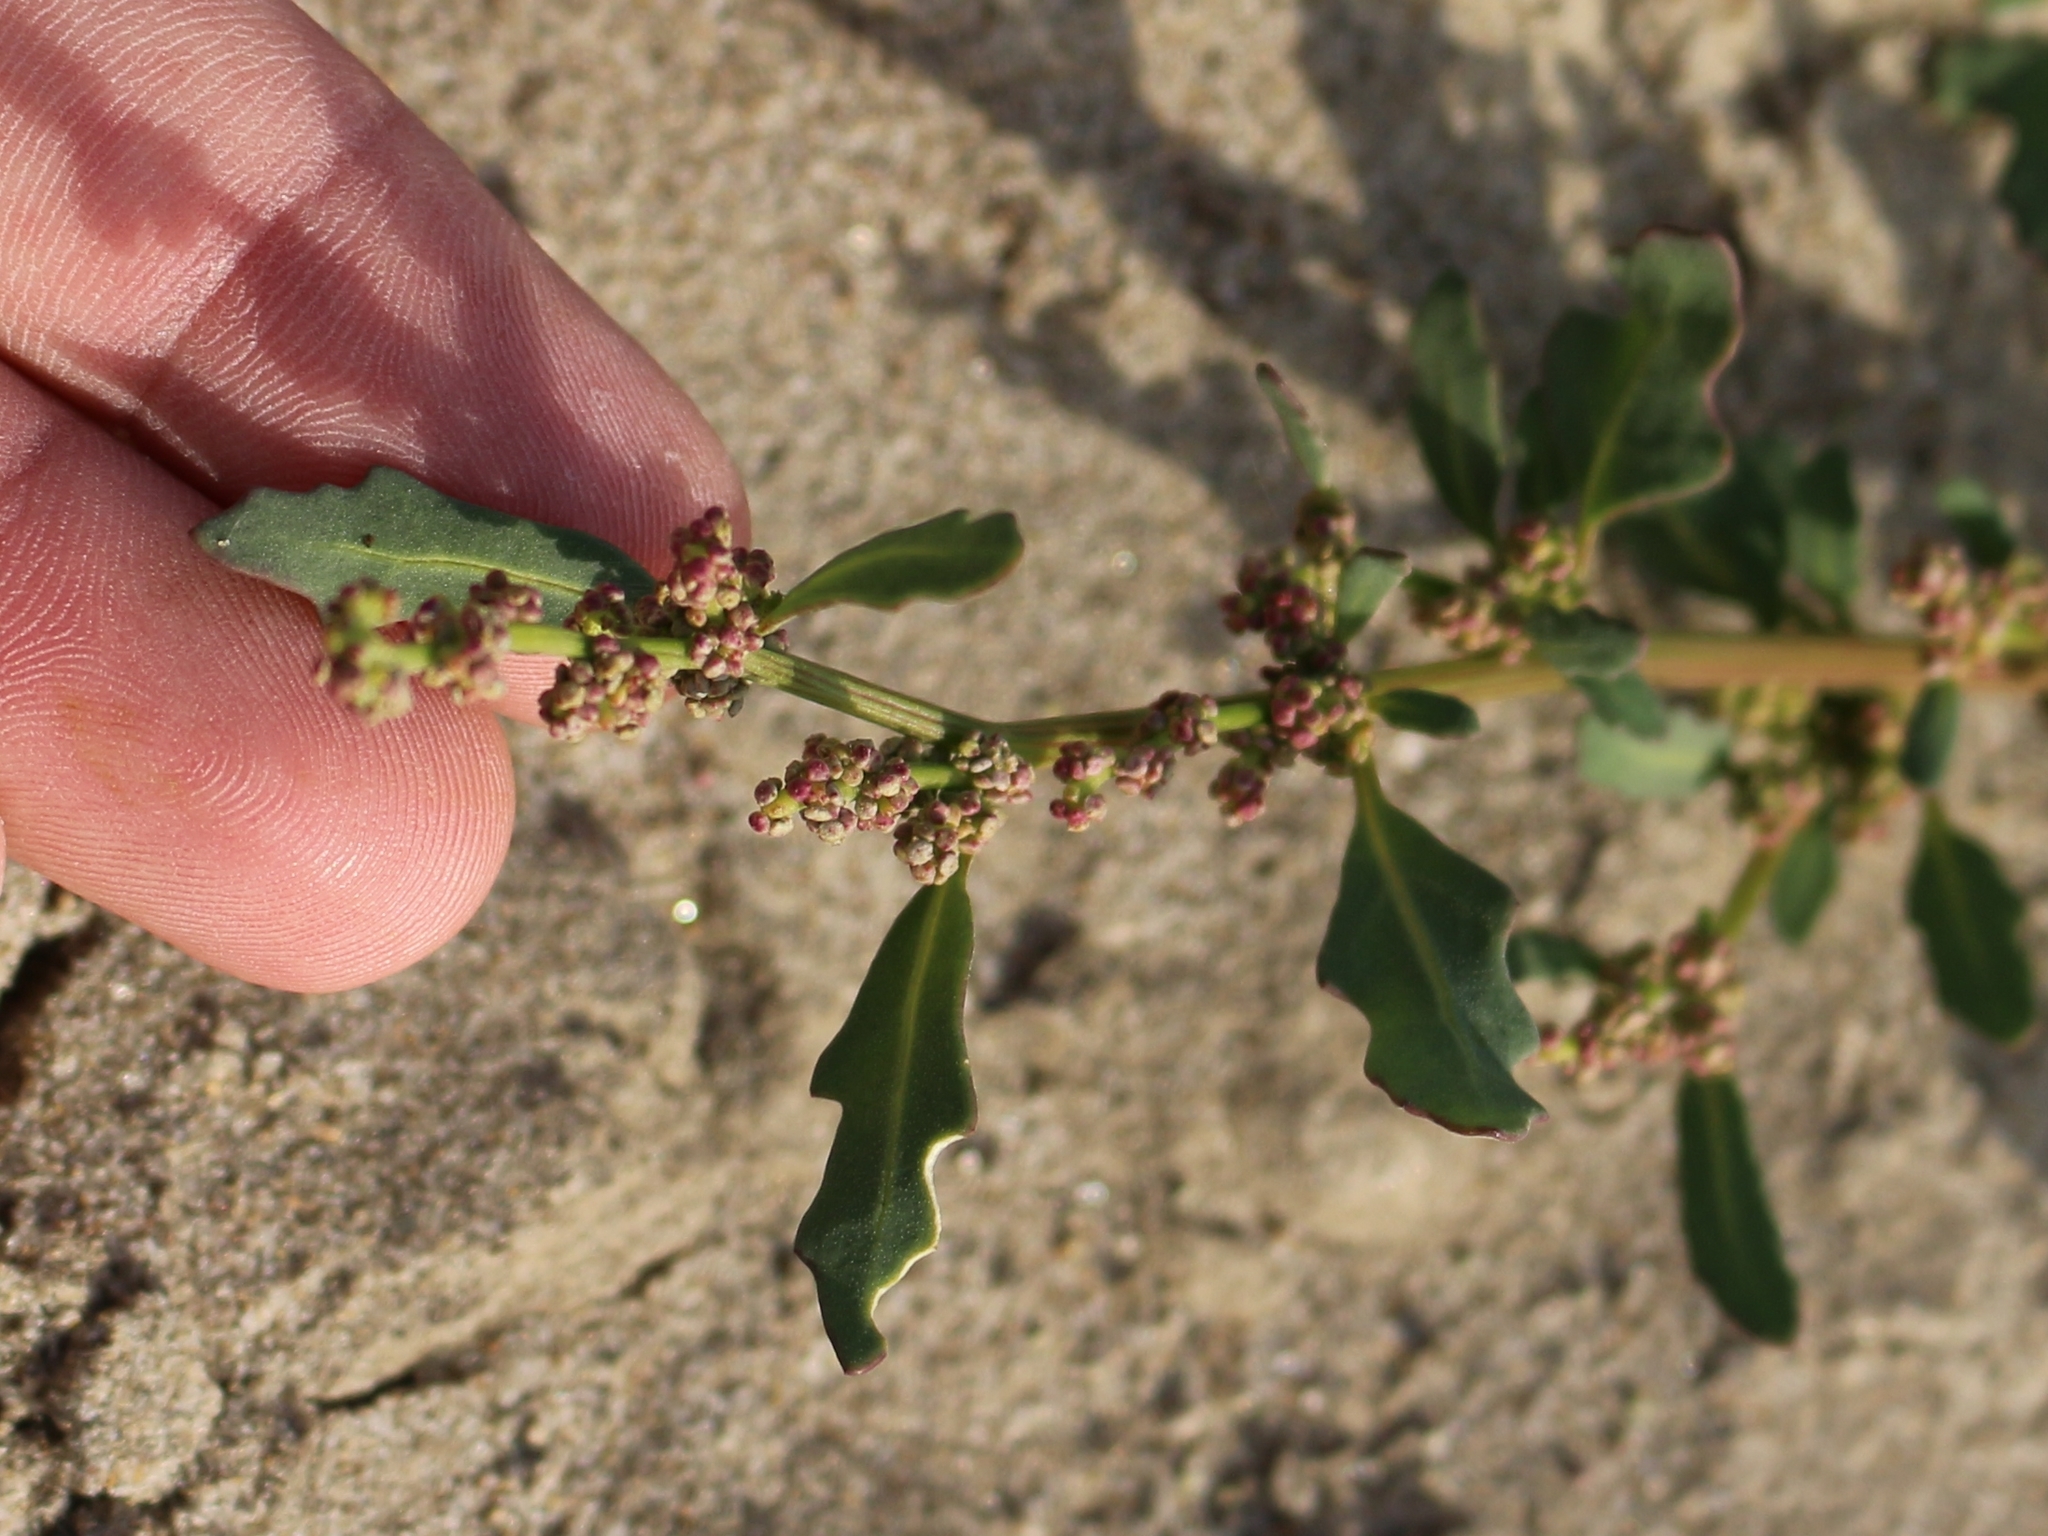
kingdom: Plantae
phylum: Tracheophyta
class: Magnoliopsida
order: Caryophyllales
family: Amaranthaceae
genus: Oxybasis
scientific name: Oxybasis glauca
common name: Glaucous goosefoot
